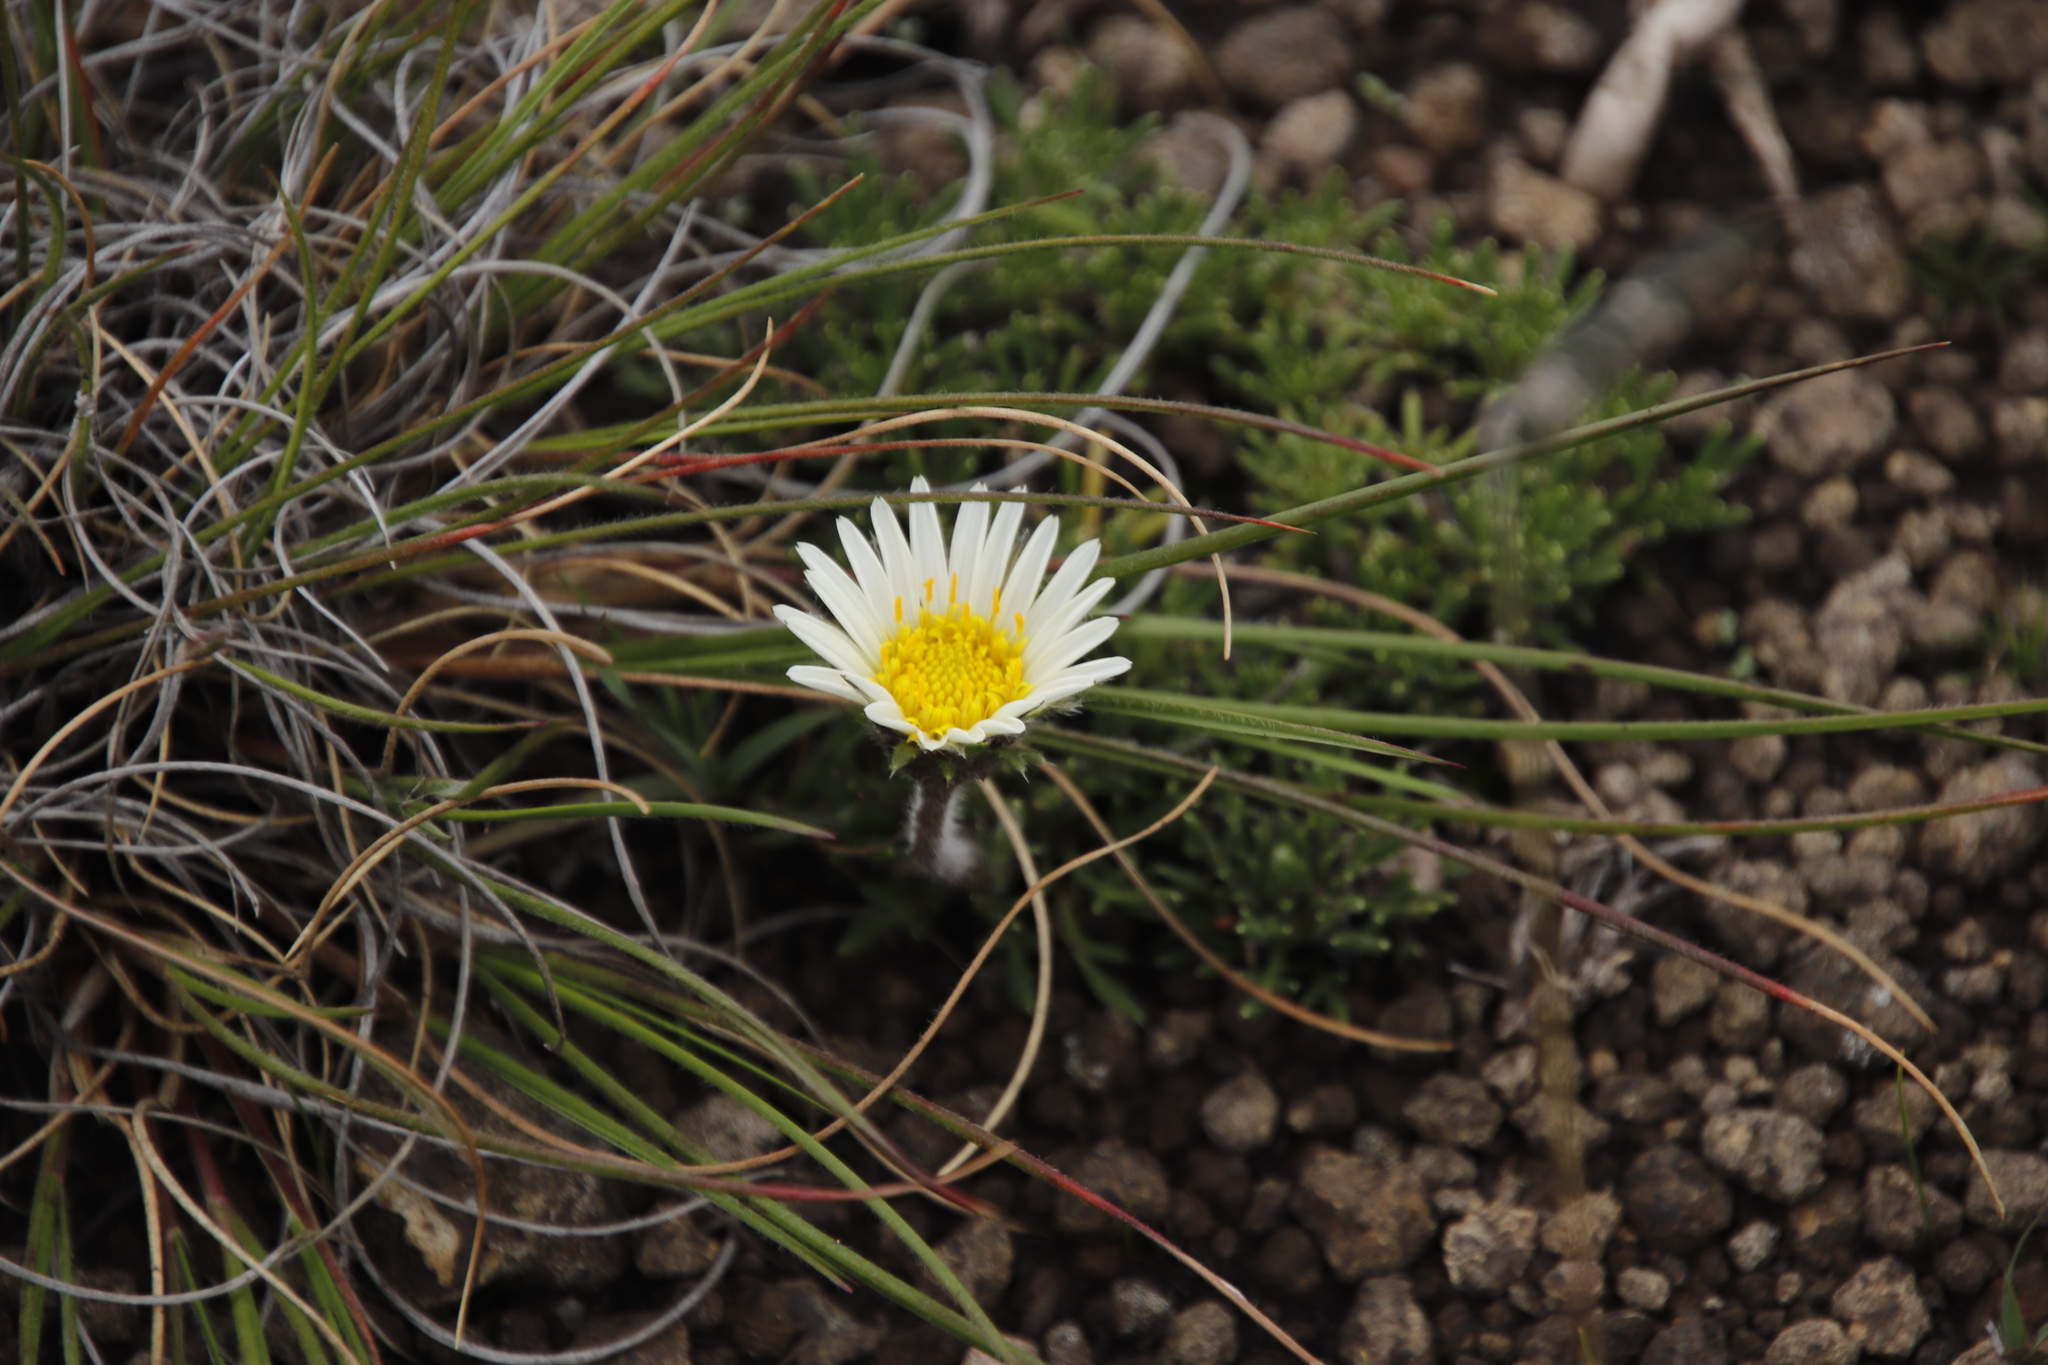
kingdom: Plantae
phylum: Tracheophyta
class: Magnoliopsida
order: Asterales
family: Asteraceae
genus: Roessleria
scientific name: Roessleria armerioides
